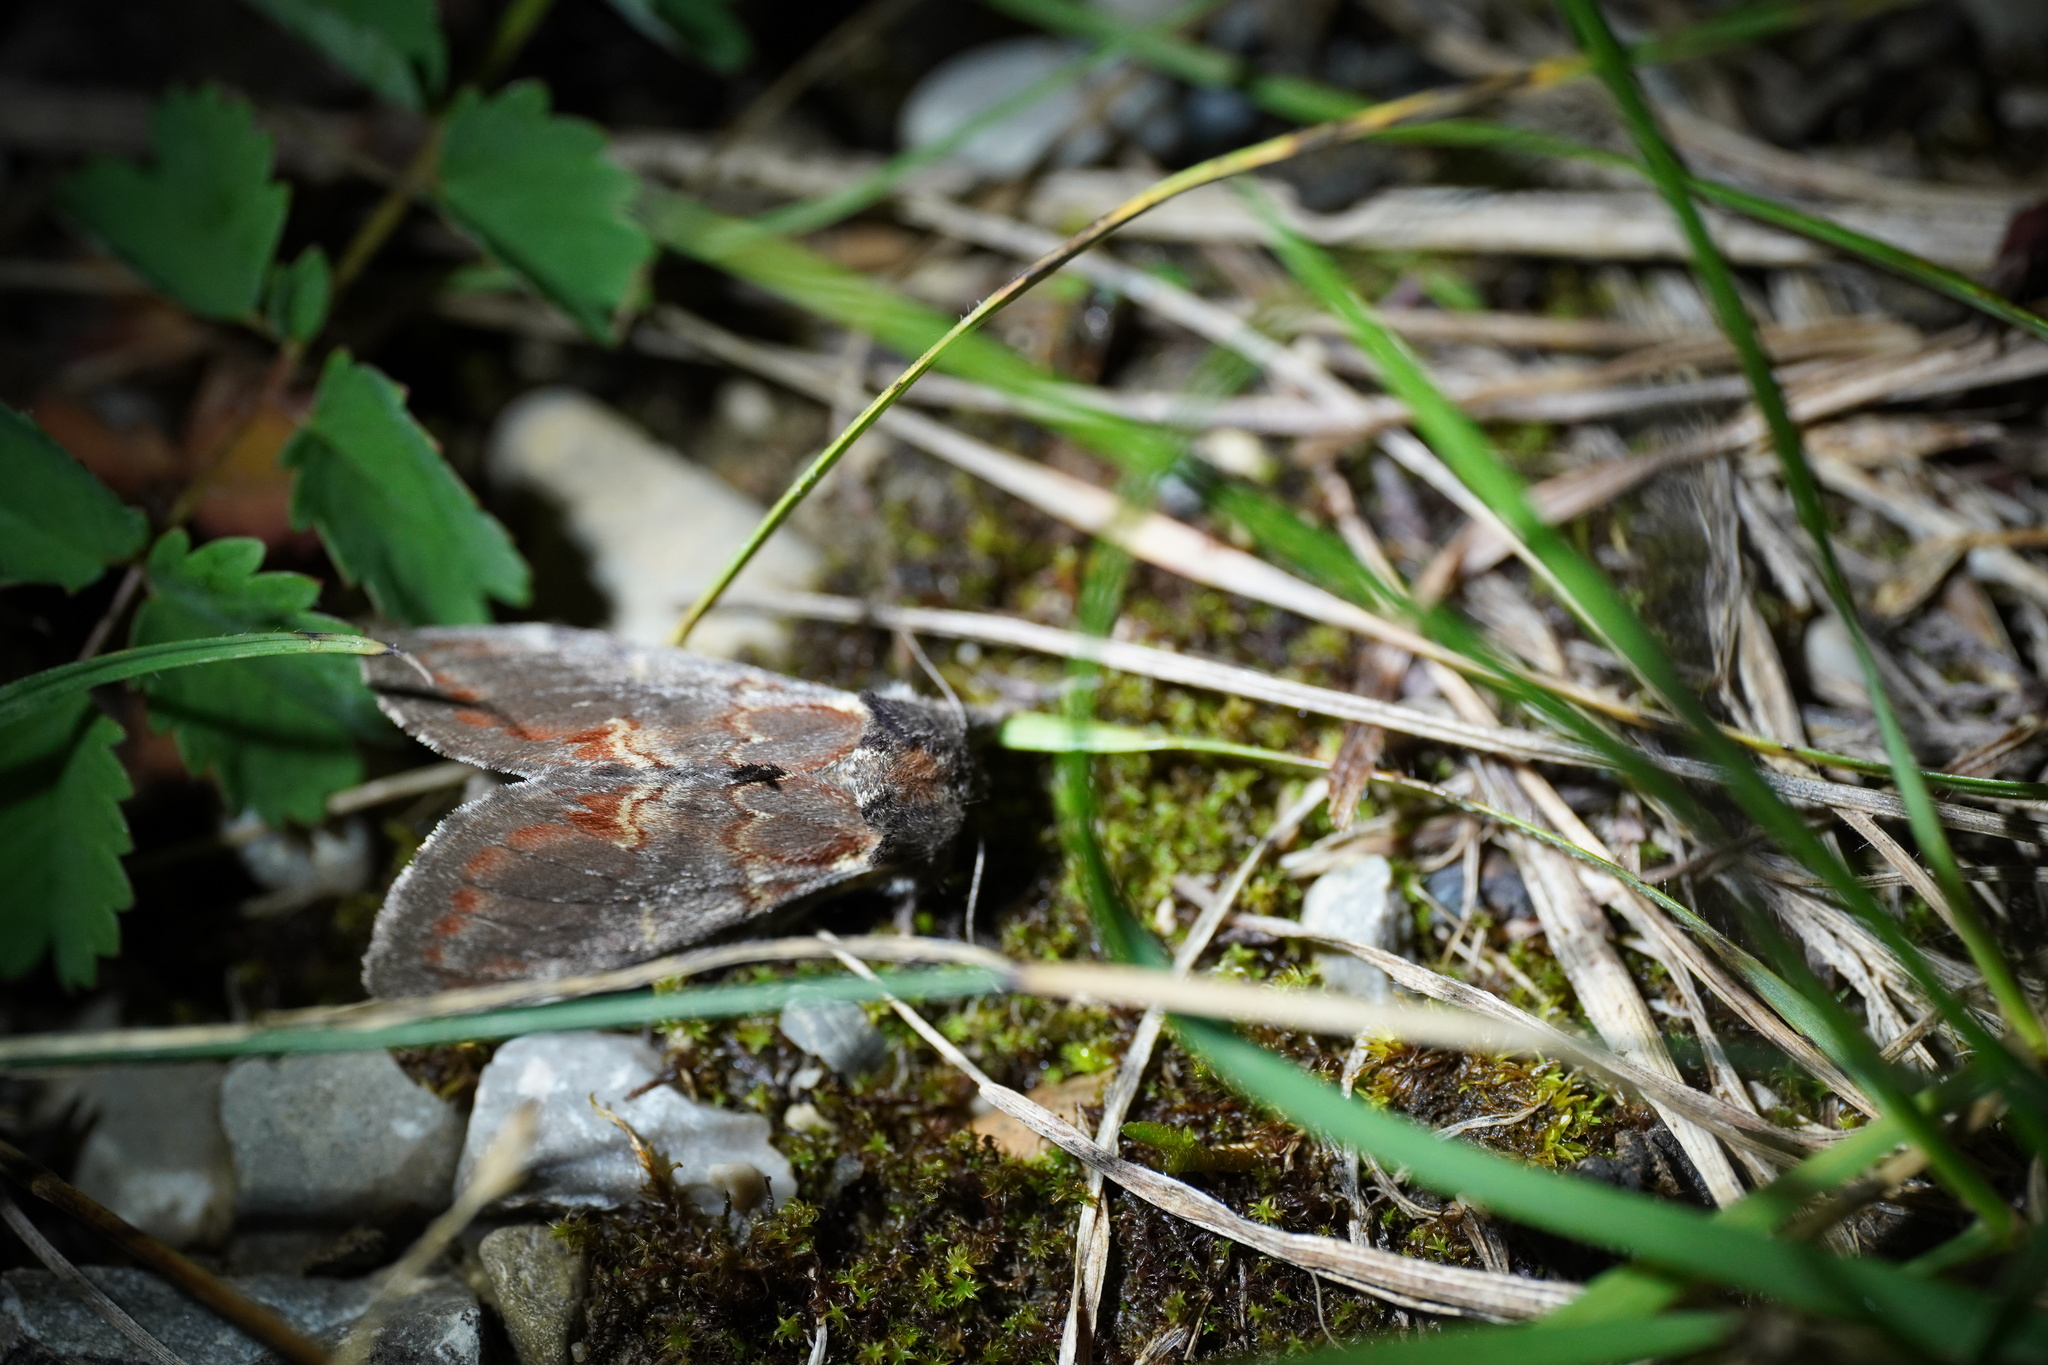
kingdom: Animalia
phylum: Arthropoda
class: Insecta
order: Lepidoptera
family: Notodontidae
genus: Notodonta
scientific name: Notodonta dromedarius
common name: Iron prominent
